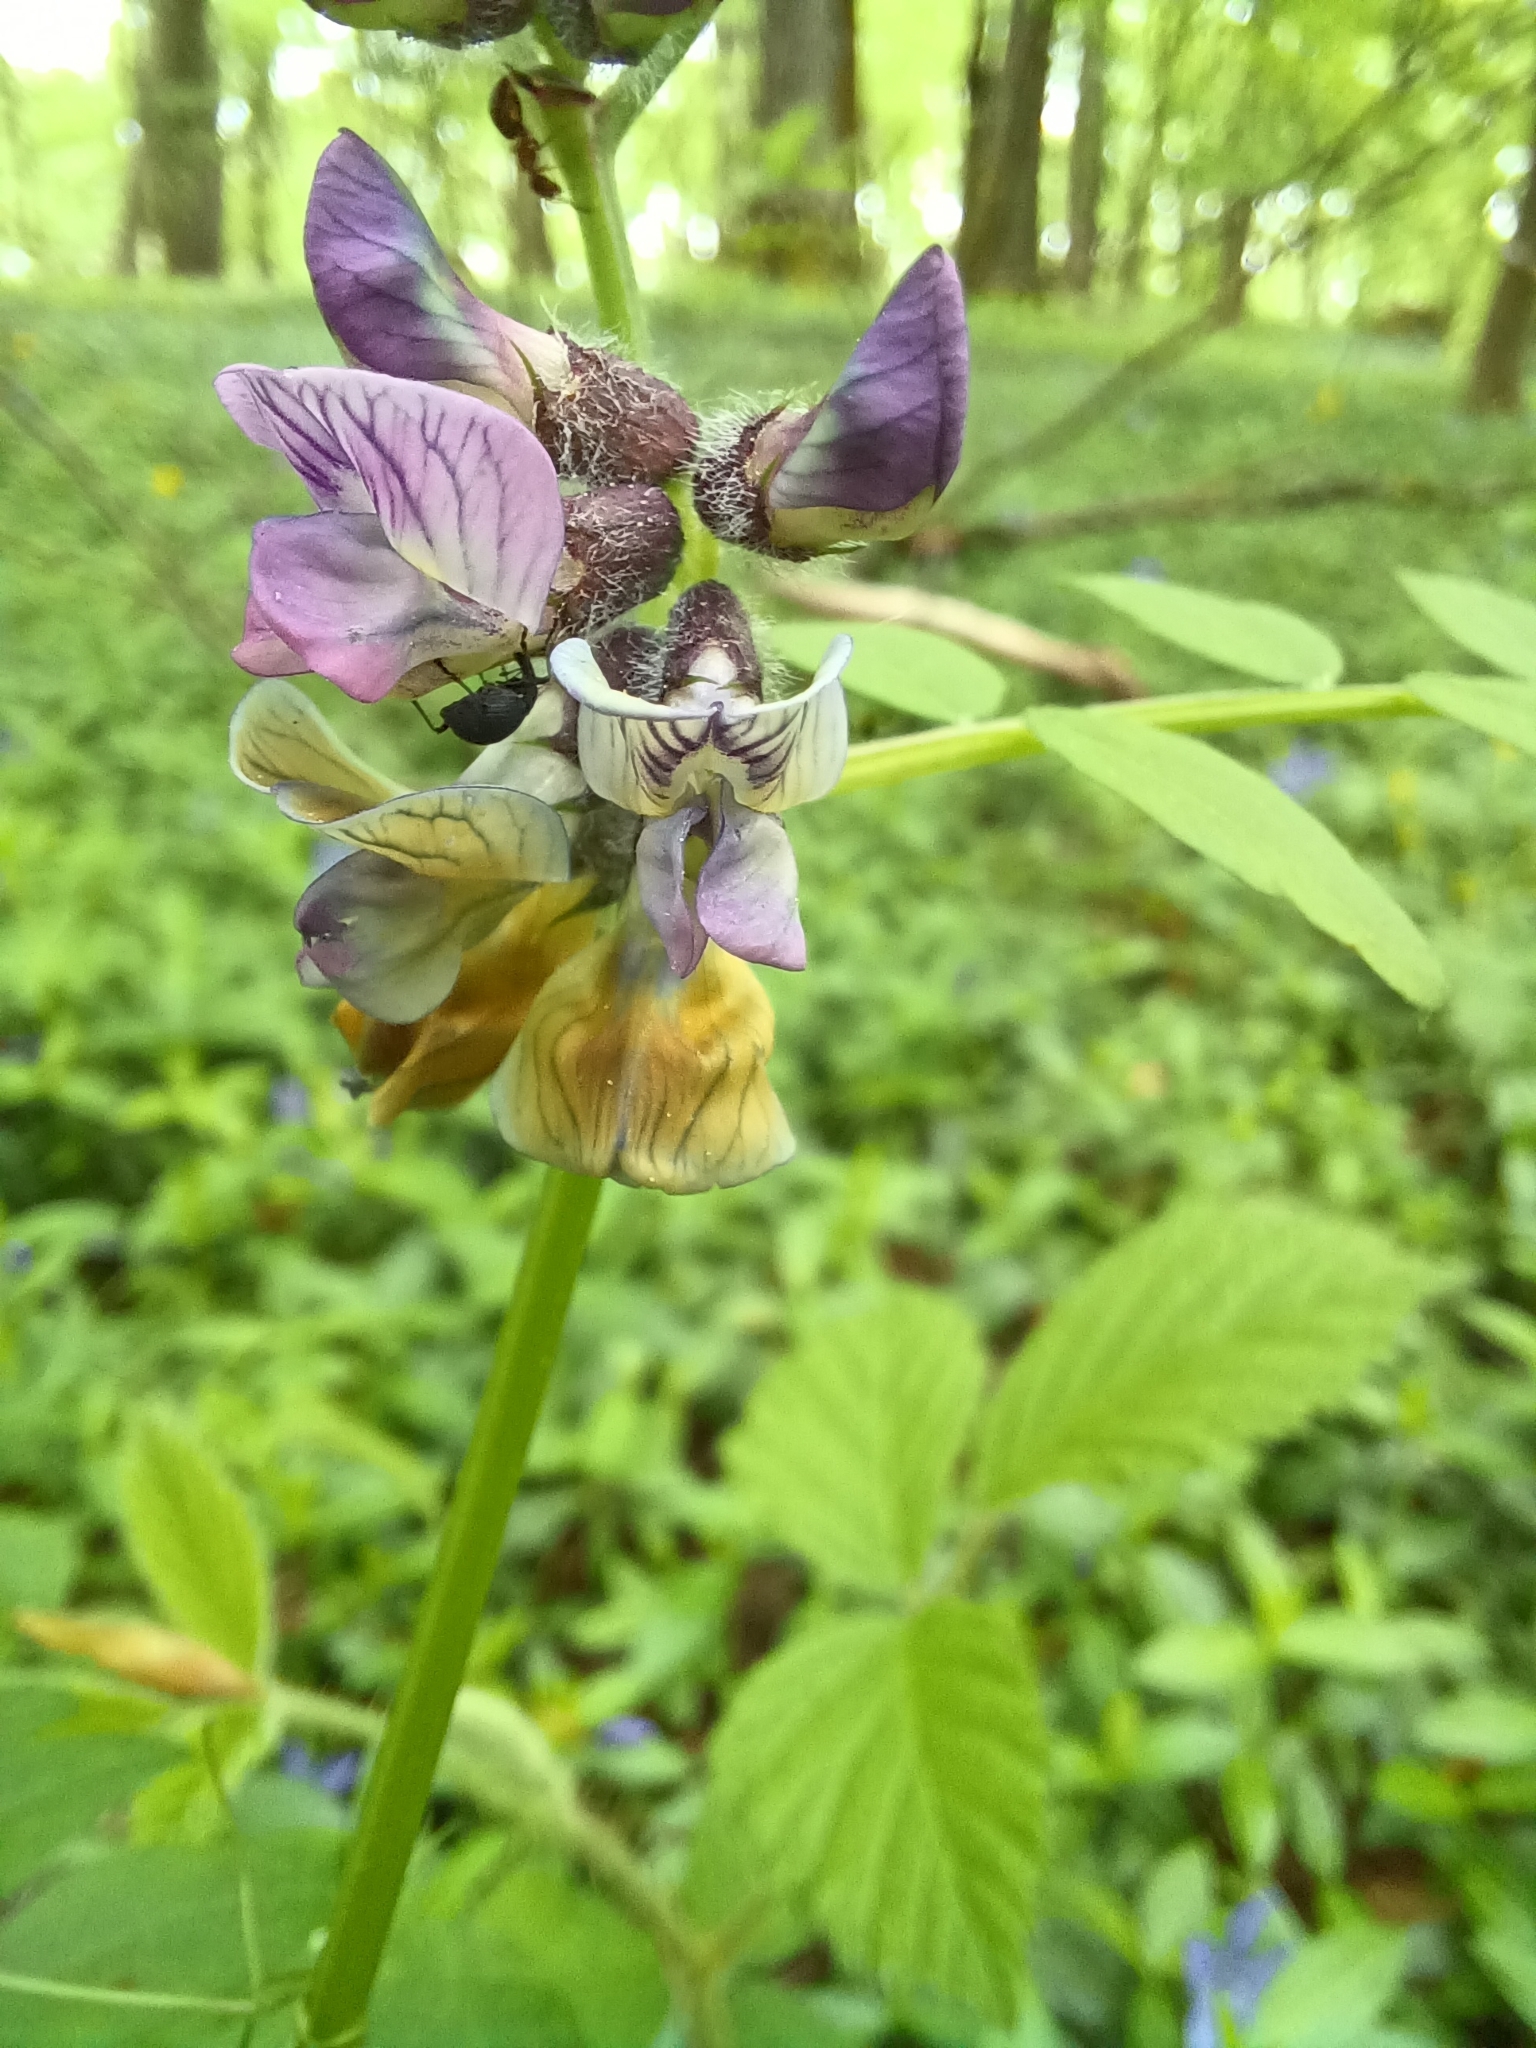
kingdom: Plantae
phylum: Tracheophyta
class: Magnoliopsida
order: Fabales
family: Fabaceae
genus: Vicia
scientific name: Vicia sepium
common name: Bush vetch
